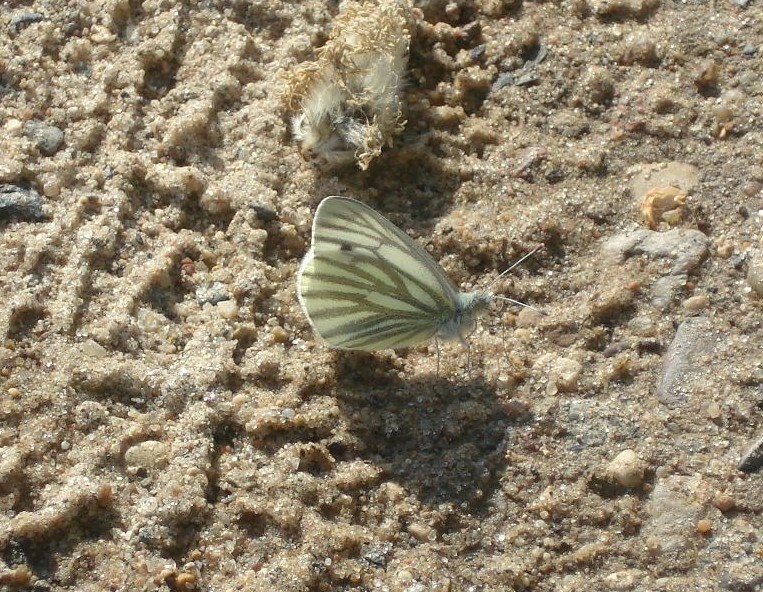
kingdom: Animalia
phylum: Arthropoda
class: Insecta
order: Lepidoptera
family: Pieridae
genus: Pieris
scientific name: Pieris napi
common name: Green-veined white
